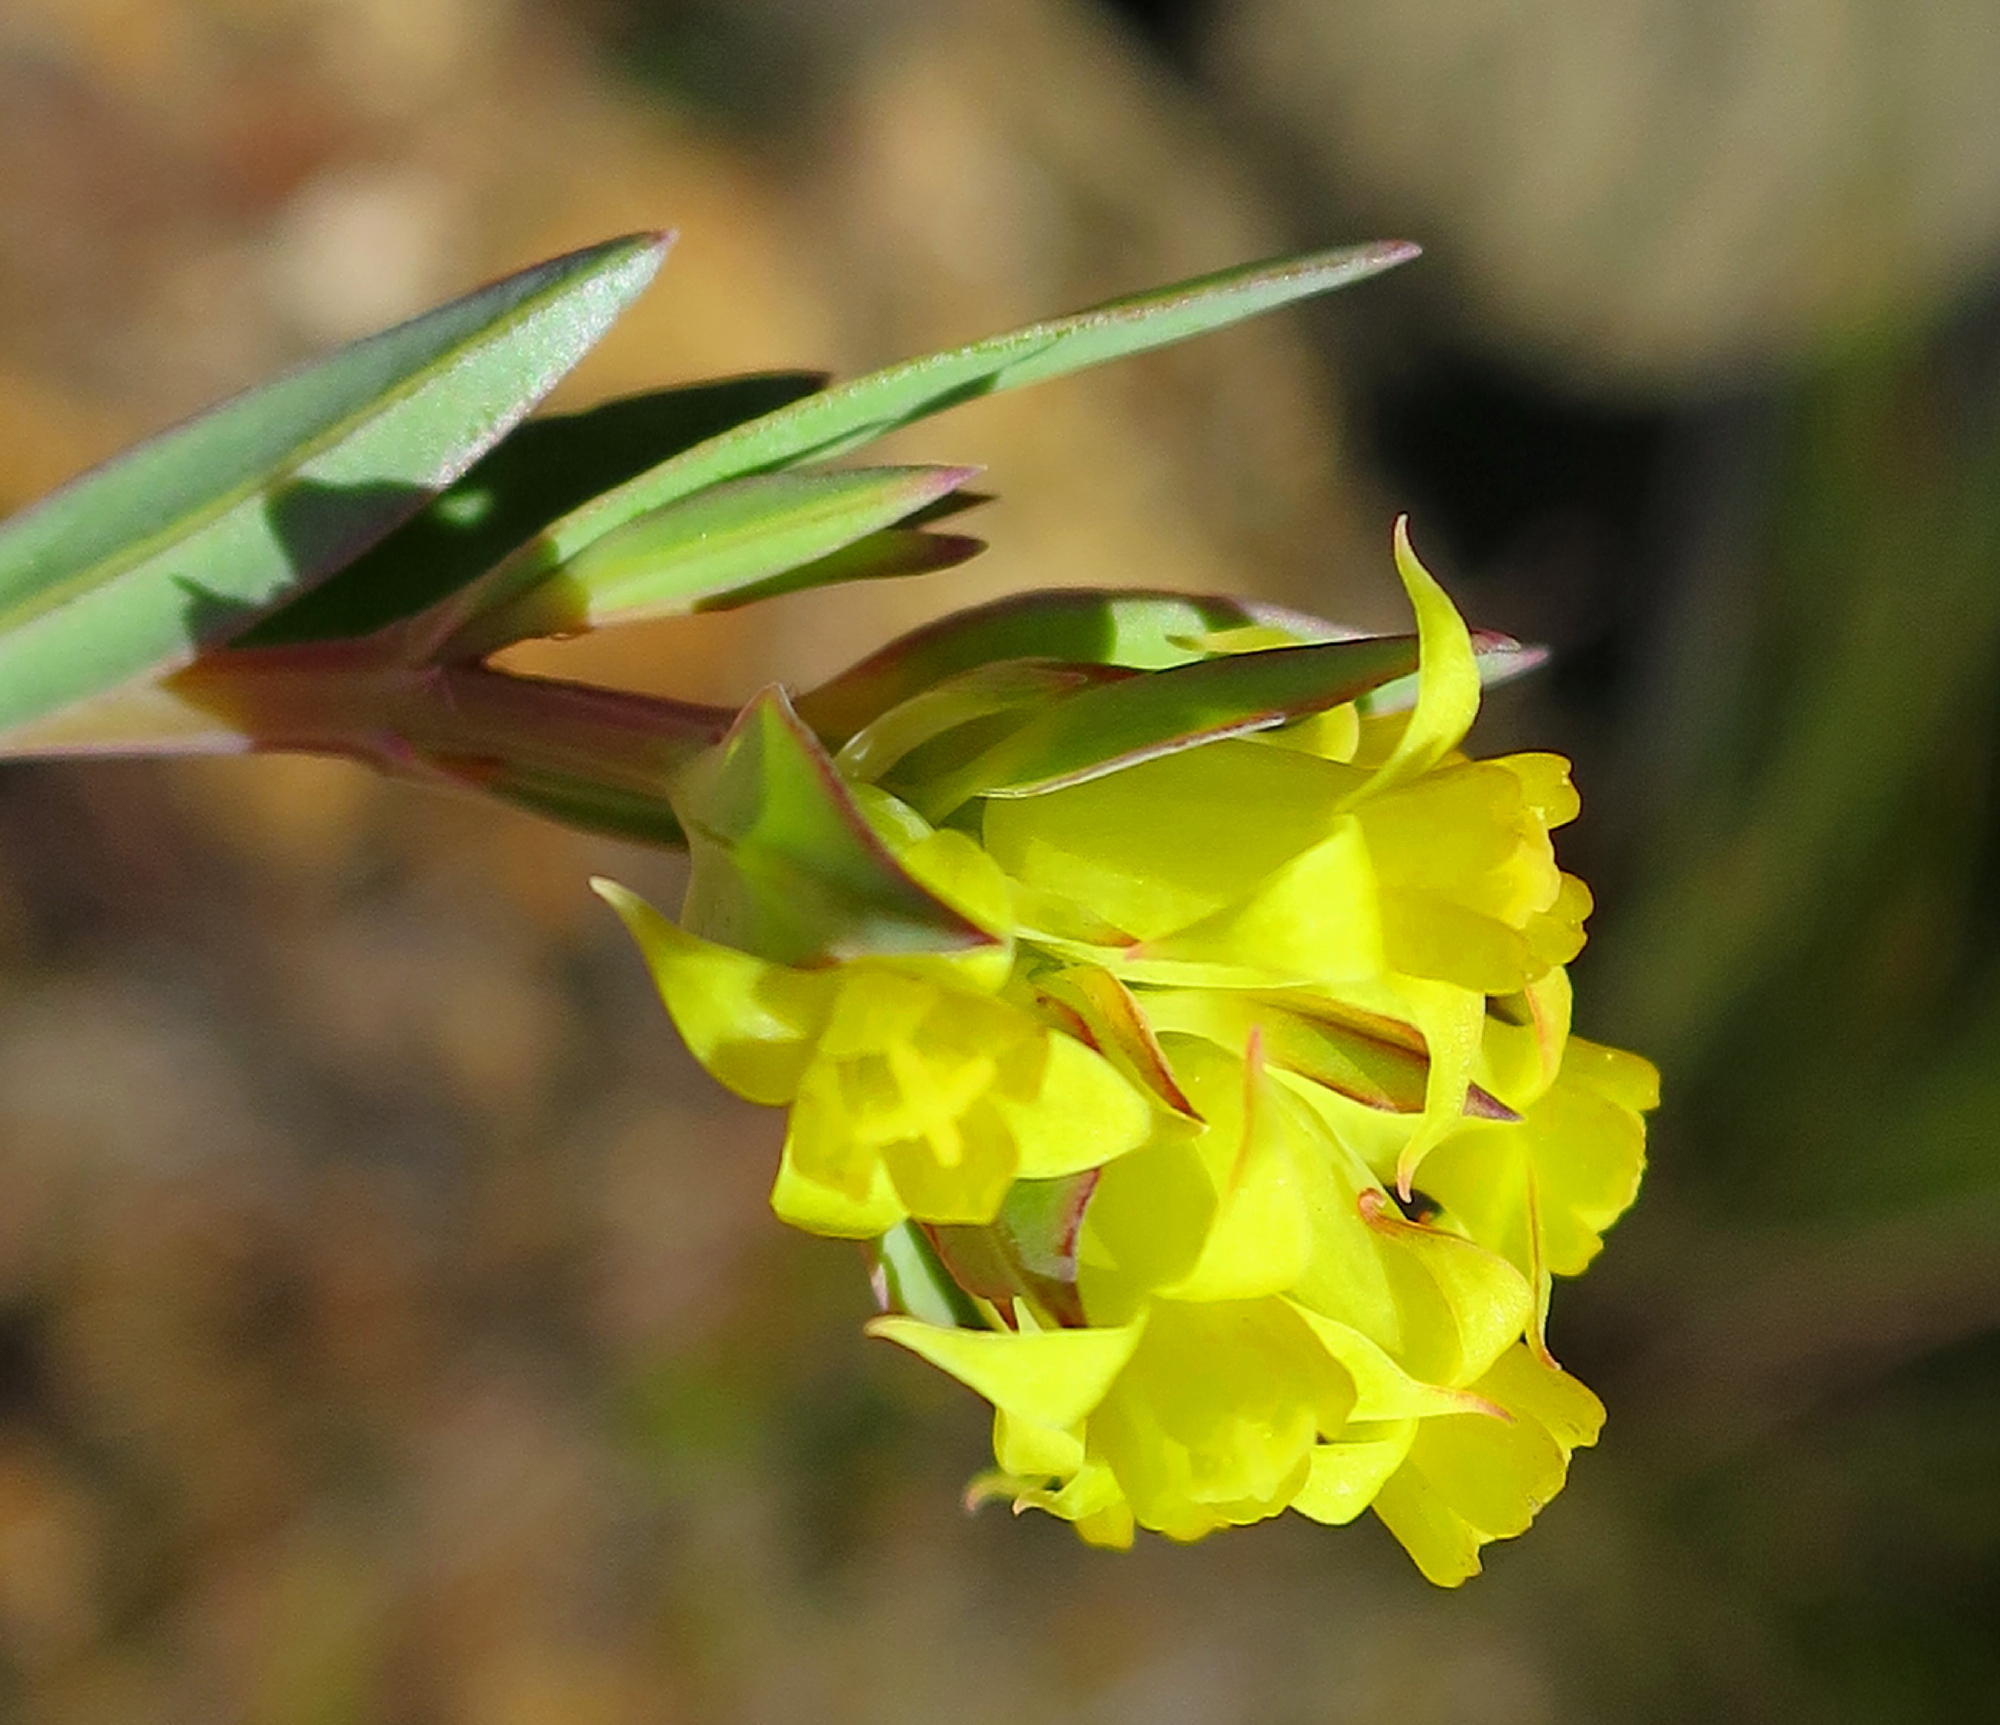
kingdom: Plantae
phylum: Tracheophyta
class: Magnoliopsida
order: Myrtales
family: Penaeaceae
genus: Penaea
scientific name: Penaea acutifolia
